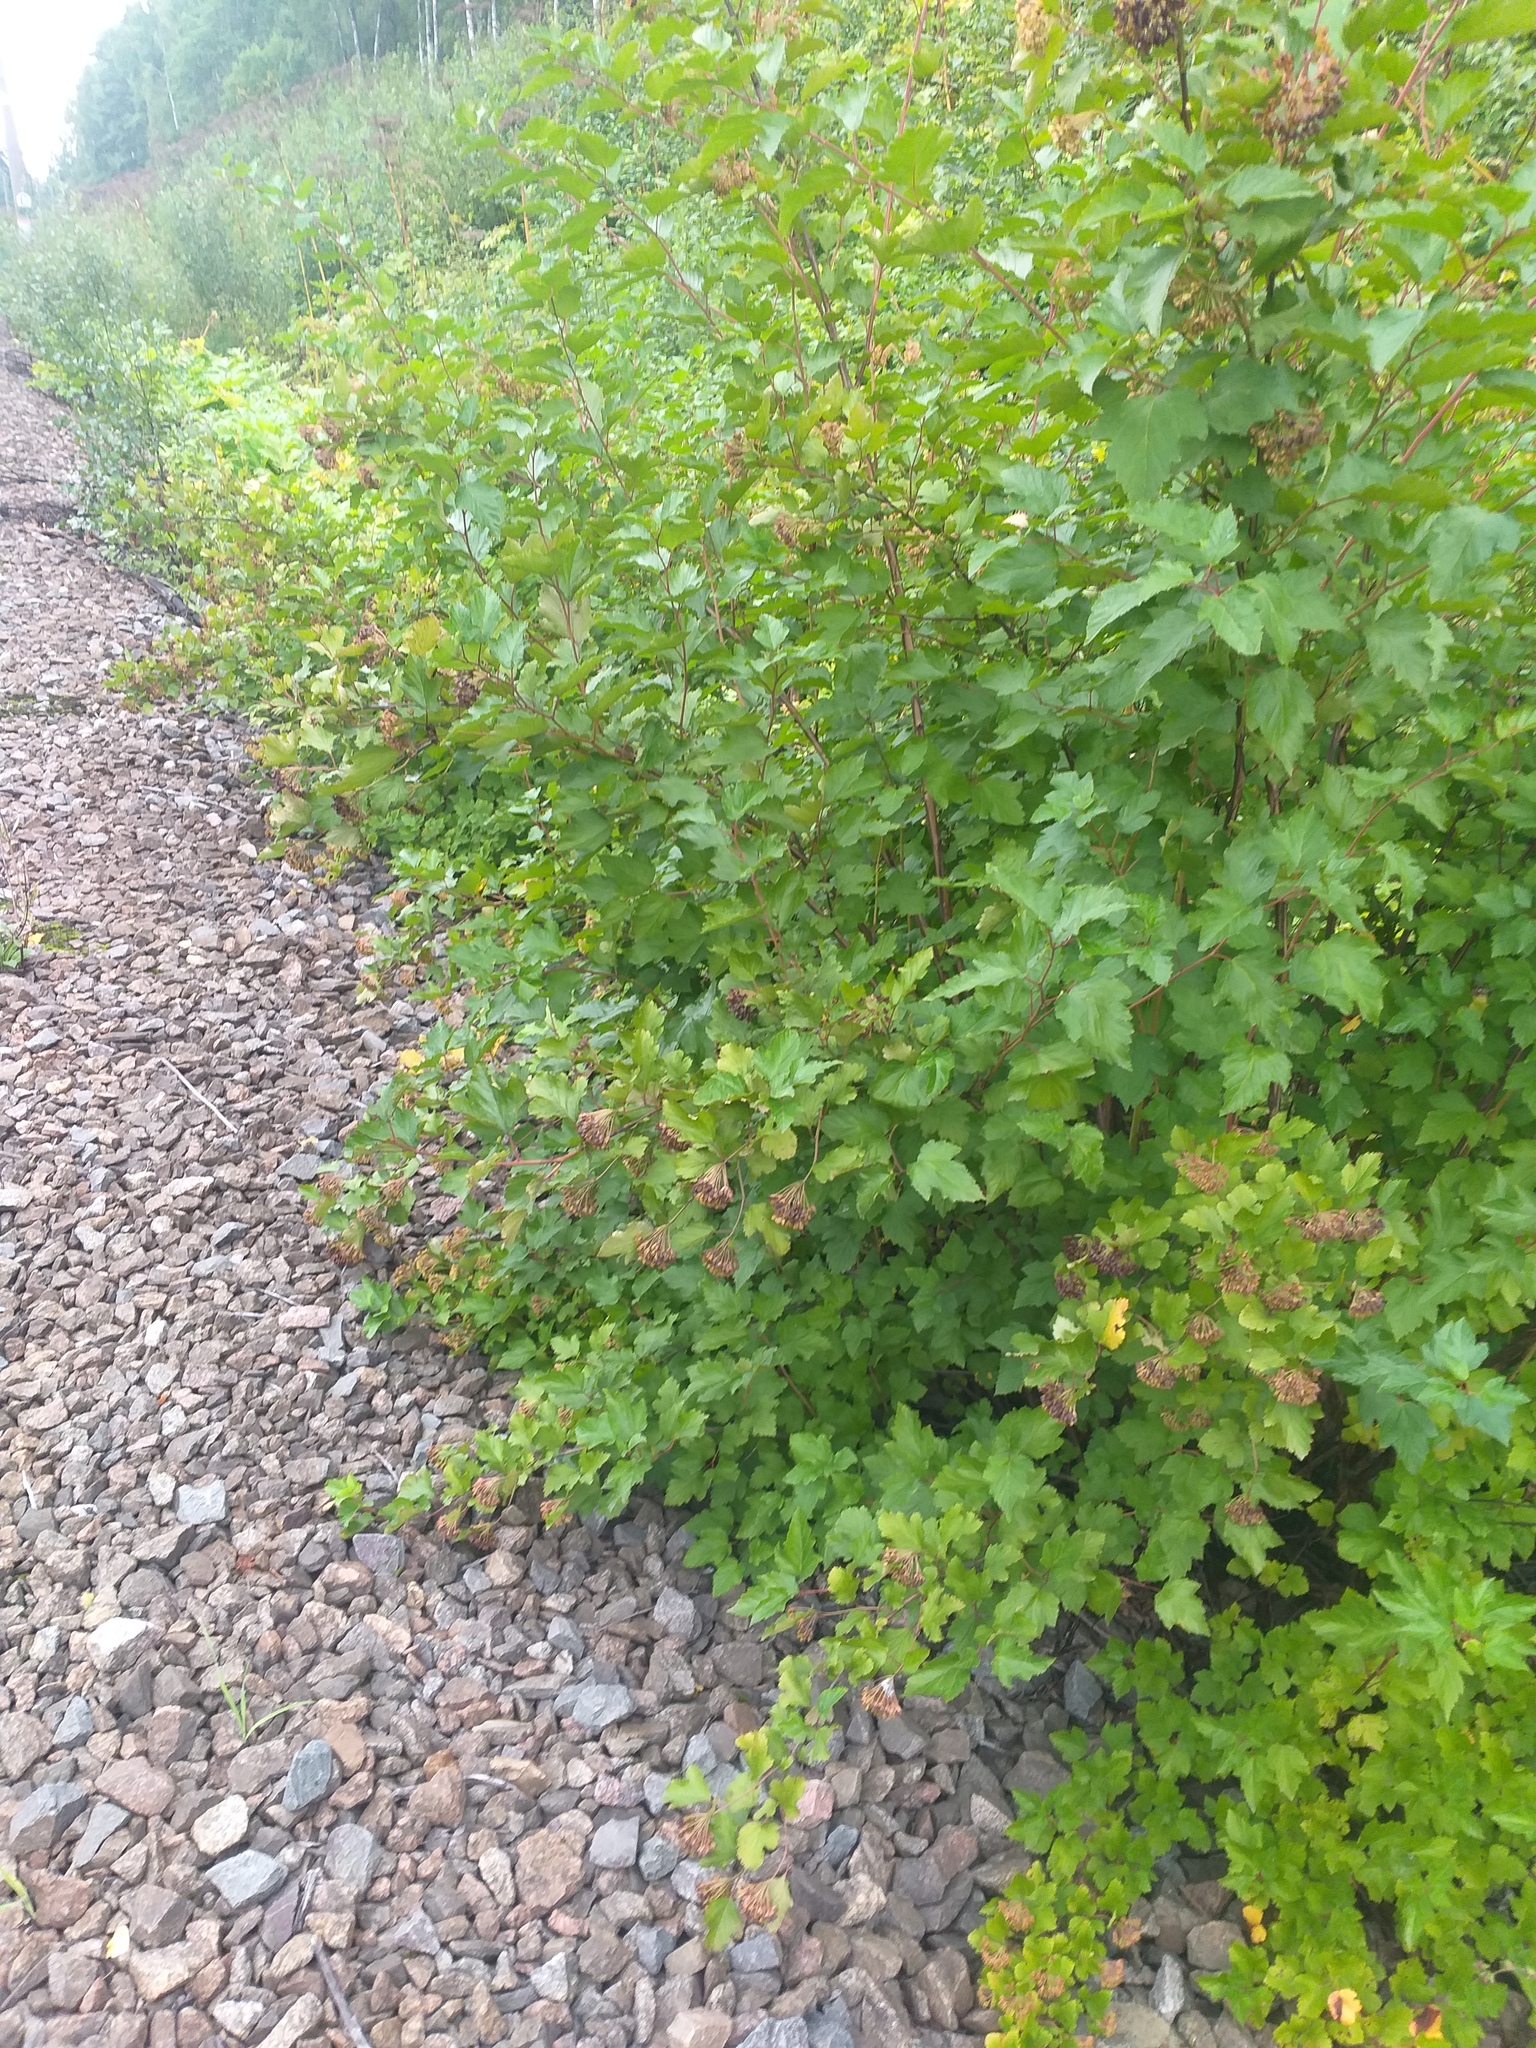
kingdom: Plantae
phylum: Tracheophyta
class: Magnoliopsida
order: Rosales
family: Rosaceae
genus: Physocarpus
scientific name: Physocarpus opulifolius
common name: Ninebark
